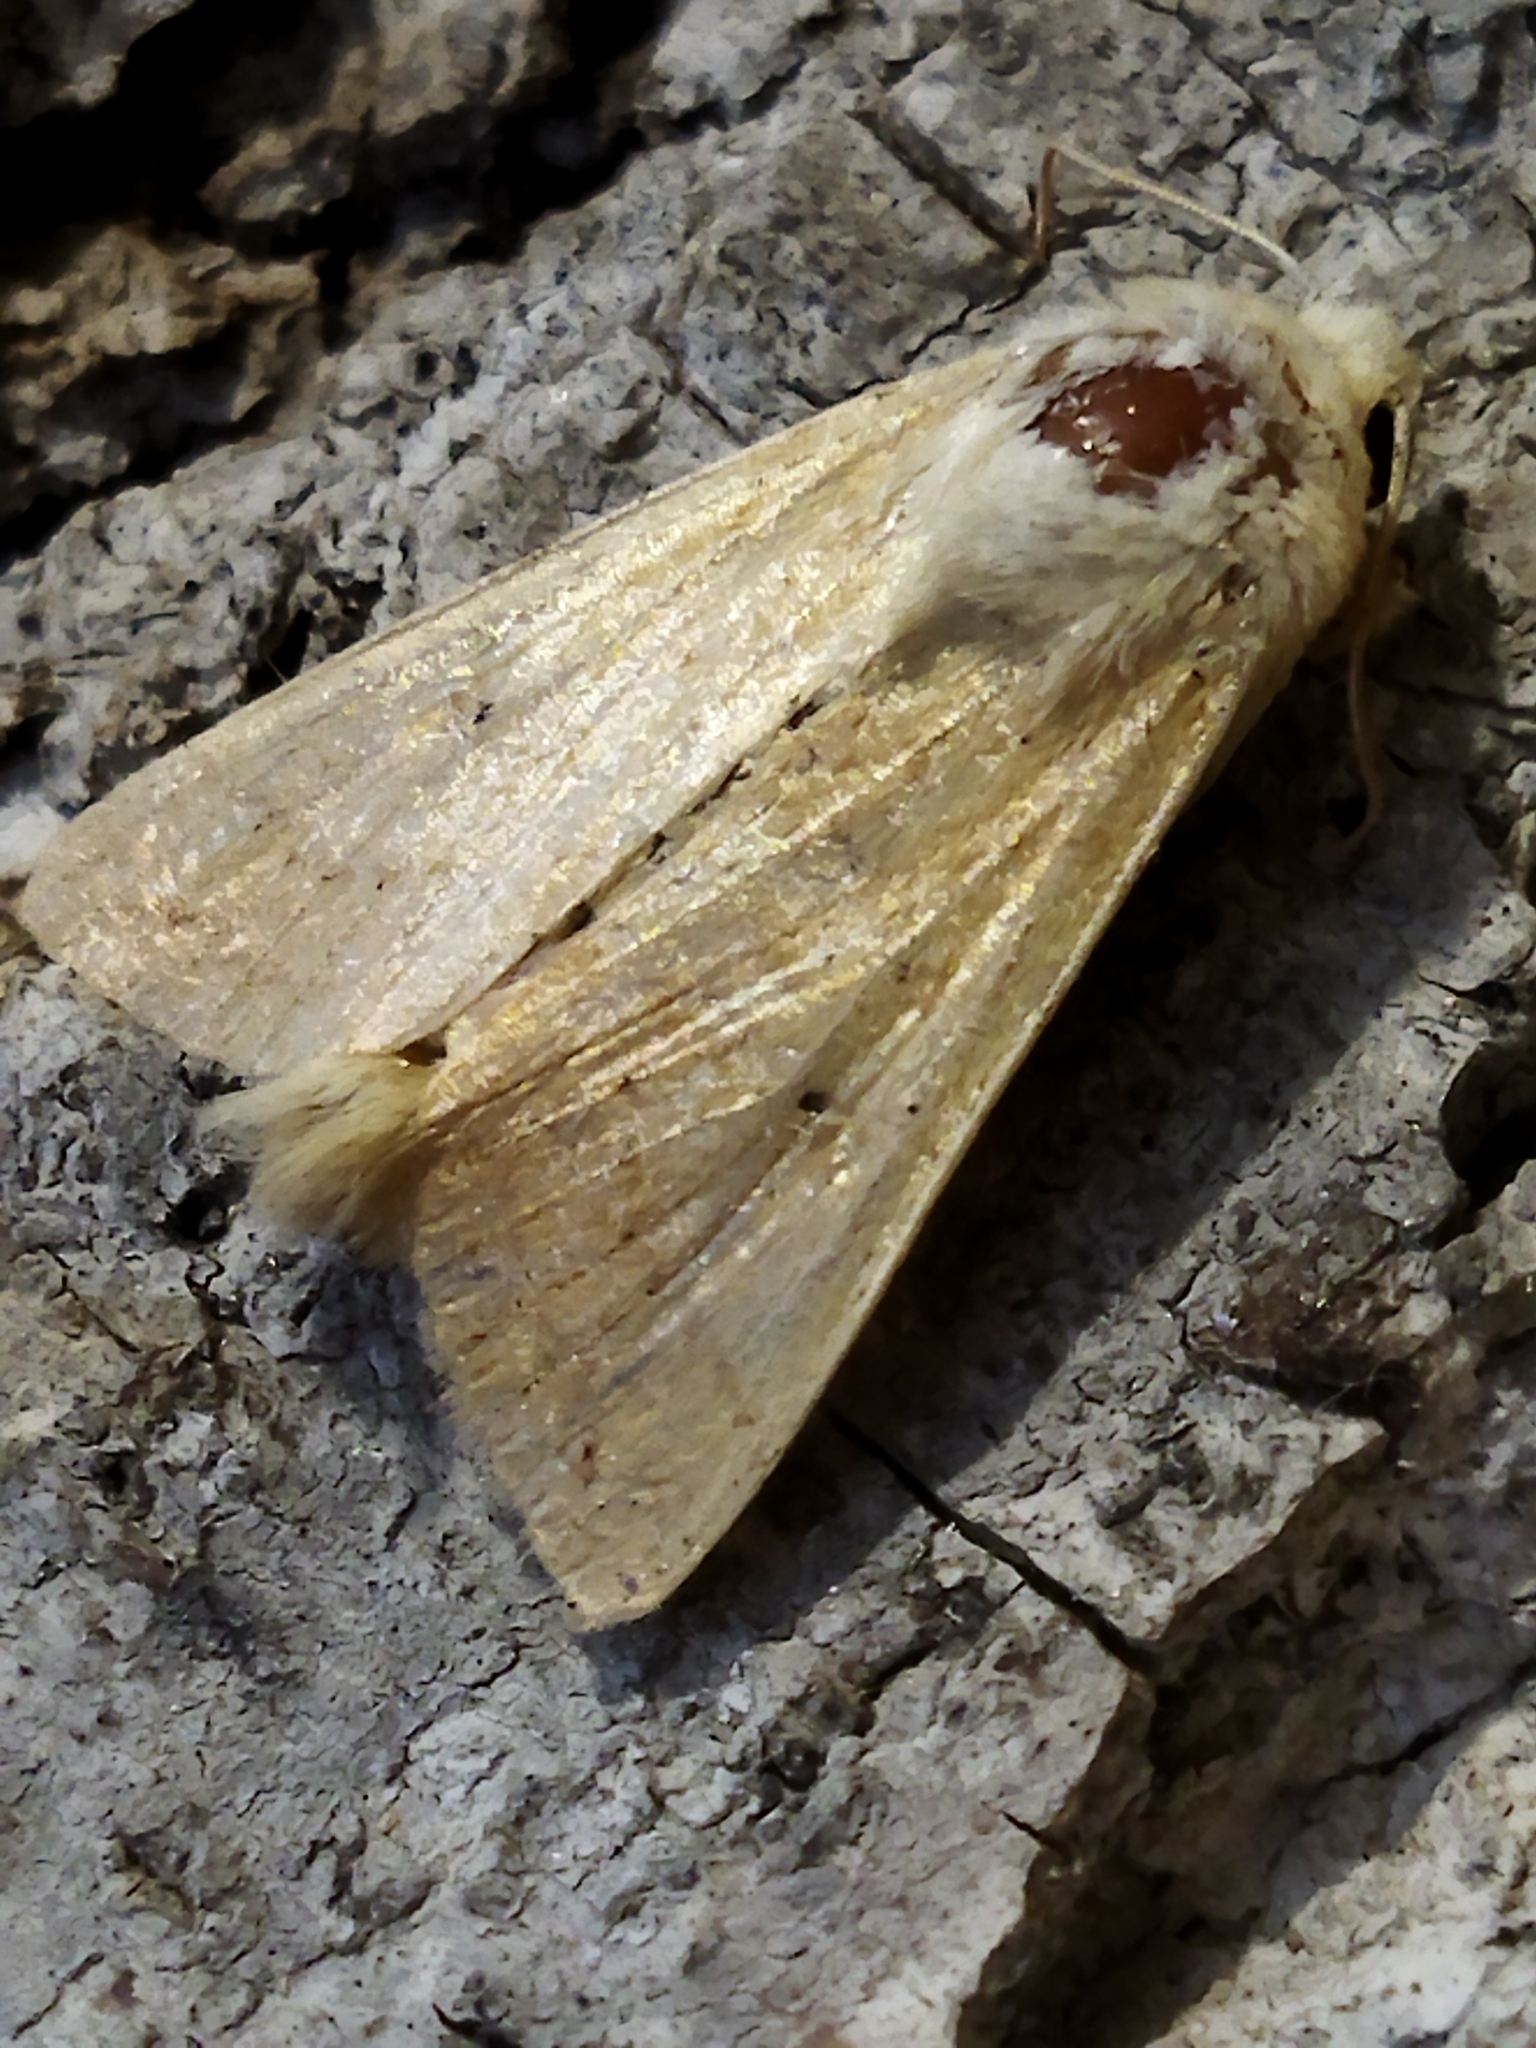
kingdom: Animalia
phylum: Arthropoda
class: Insecta
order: Lepidoptera
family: Noctuidae
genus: Mythimna
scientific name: Mythimna vitellina
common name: Delicate
